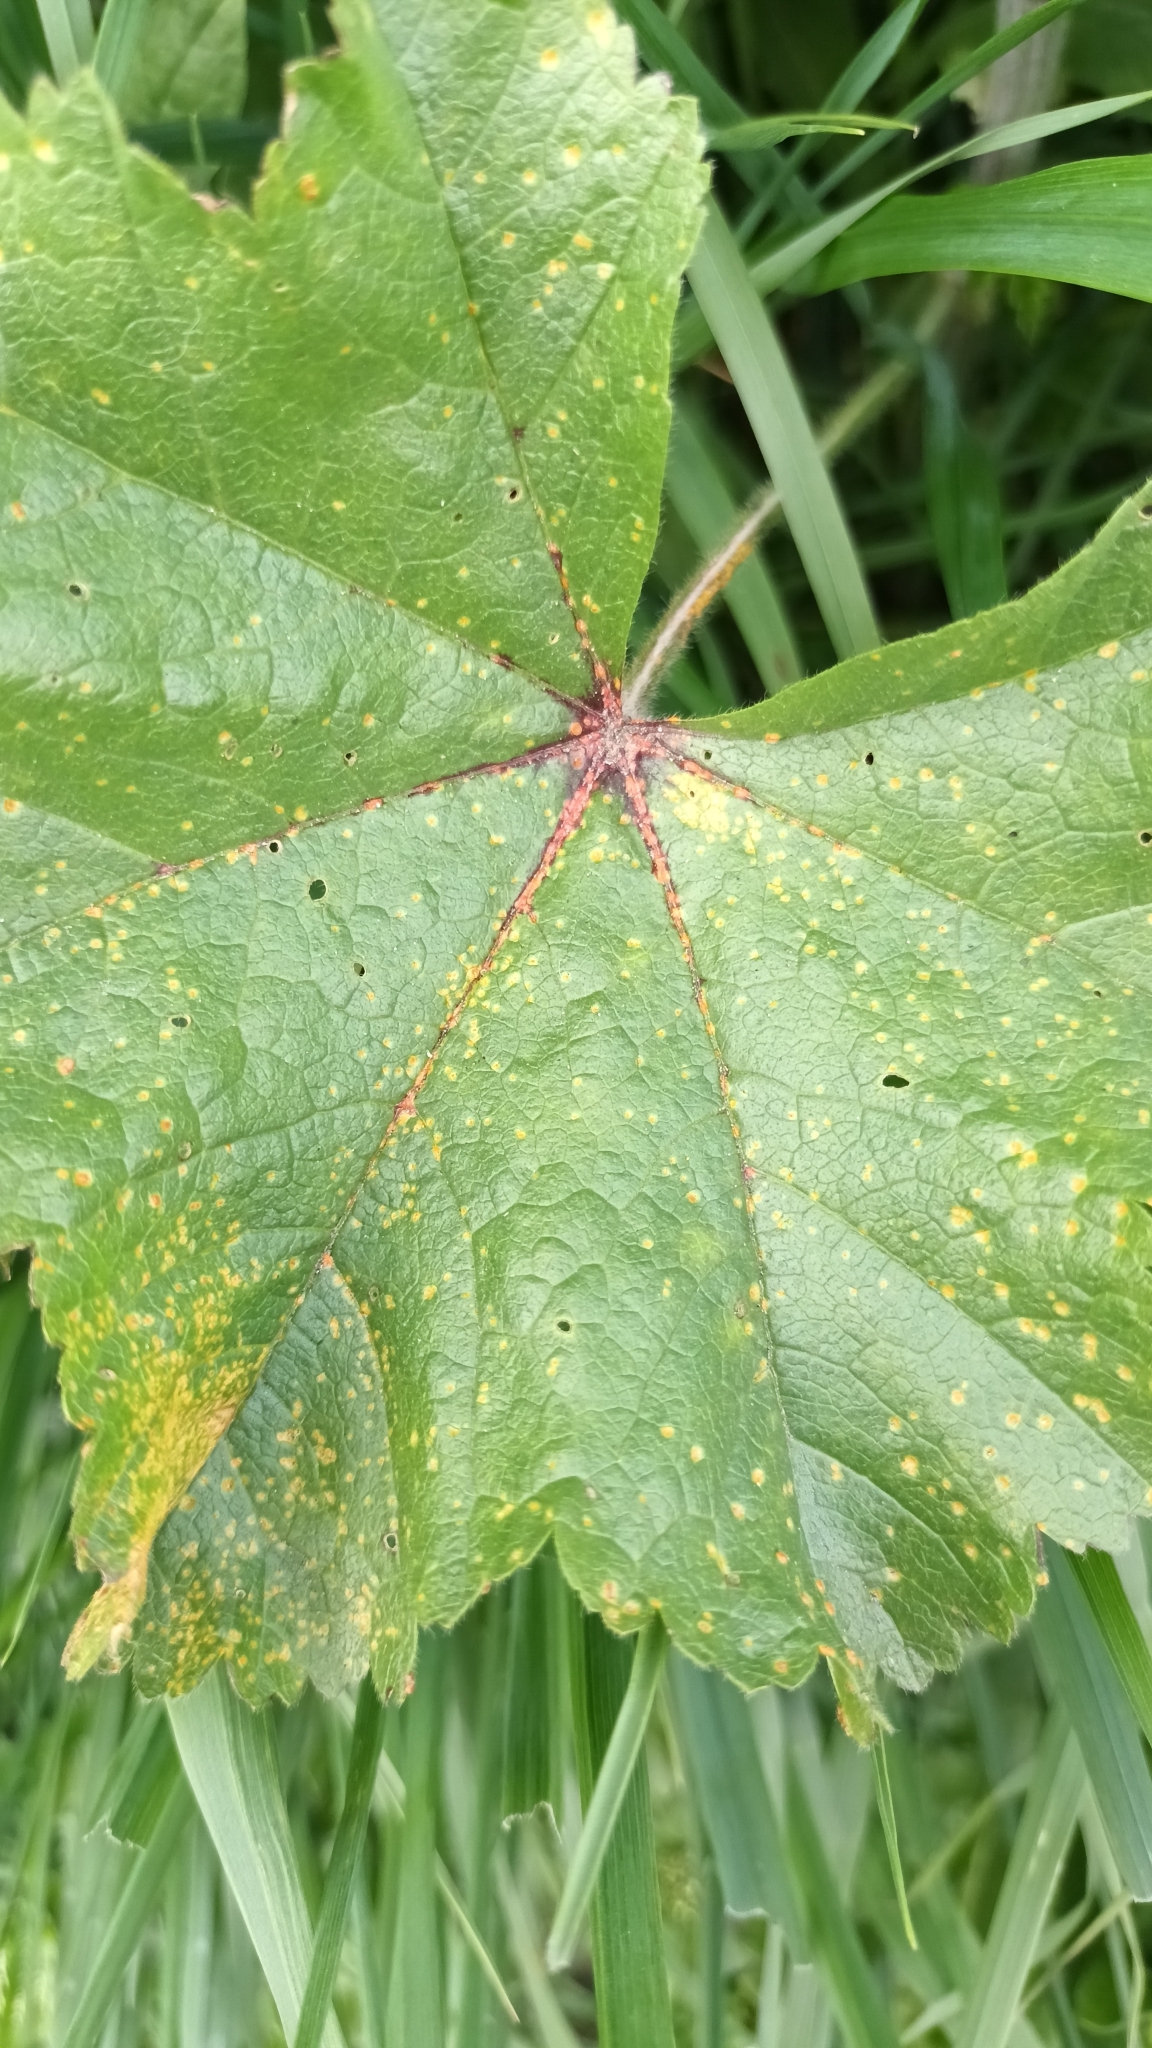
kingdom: Fungi
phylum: Basidiomycota
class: Pucciniomycetes
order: Pucciniales
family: Pucciniaceae
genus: Puccinia
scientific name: Puccinia malvacearum
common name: Hollyhock rust
